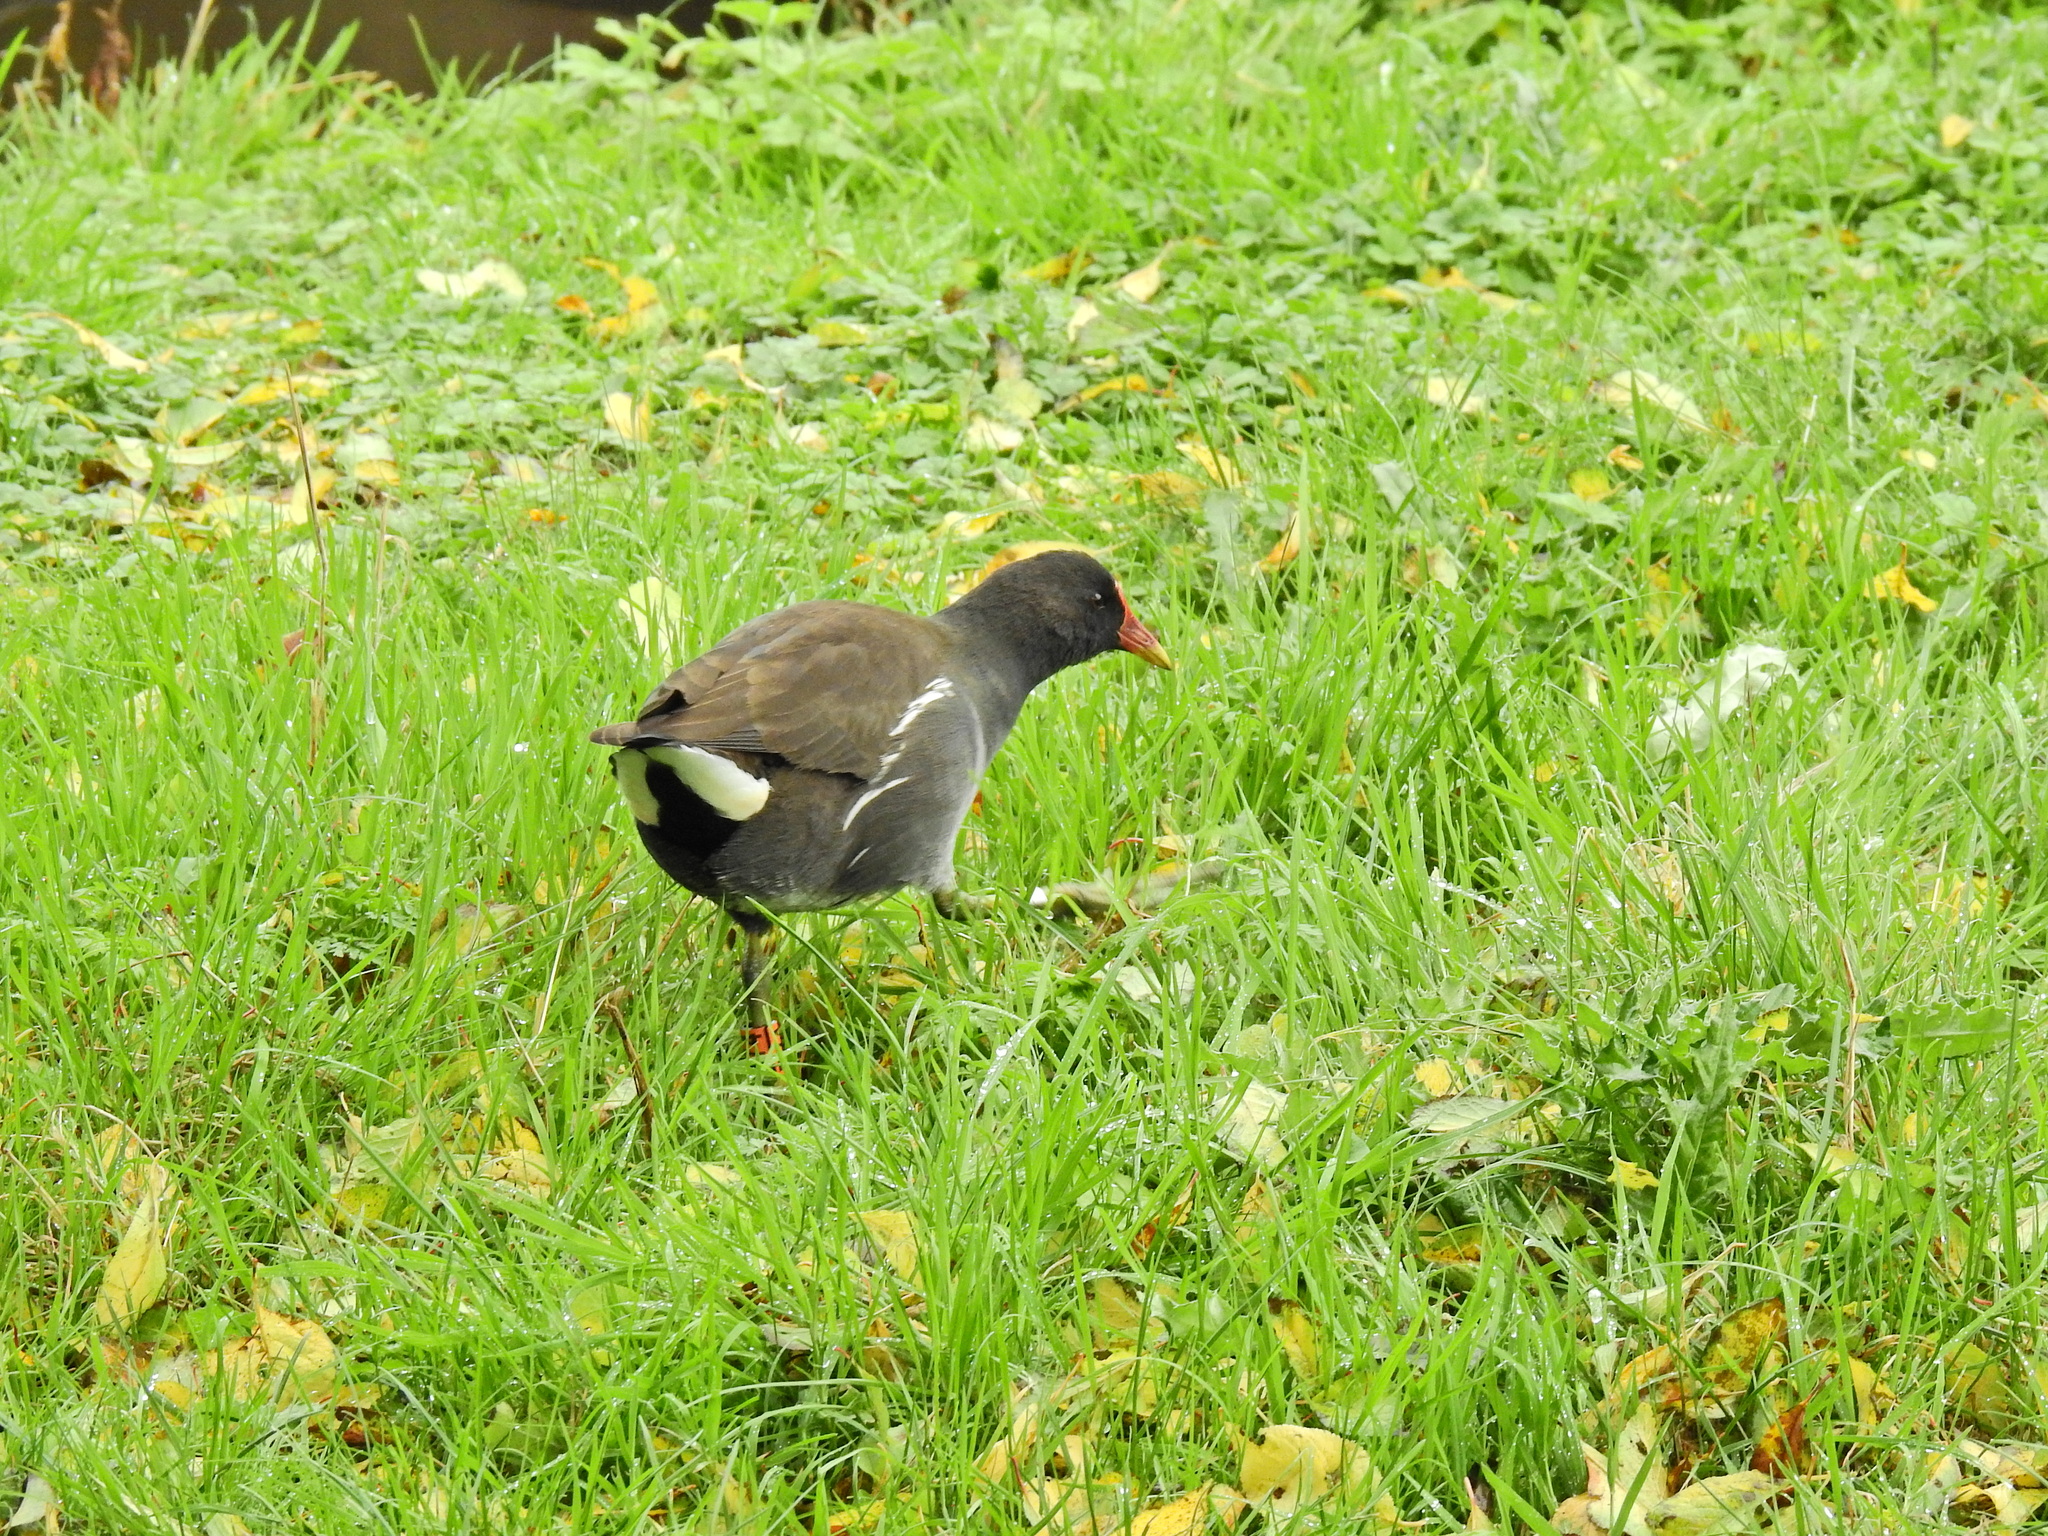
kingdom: Animalia
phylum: Chordata
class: Aves
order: Gruiformes
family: Rallidae
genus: Gallinula
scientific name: Gallinula chloropus
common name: Common moorhen
